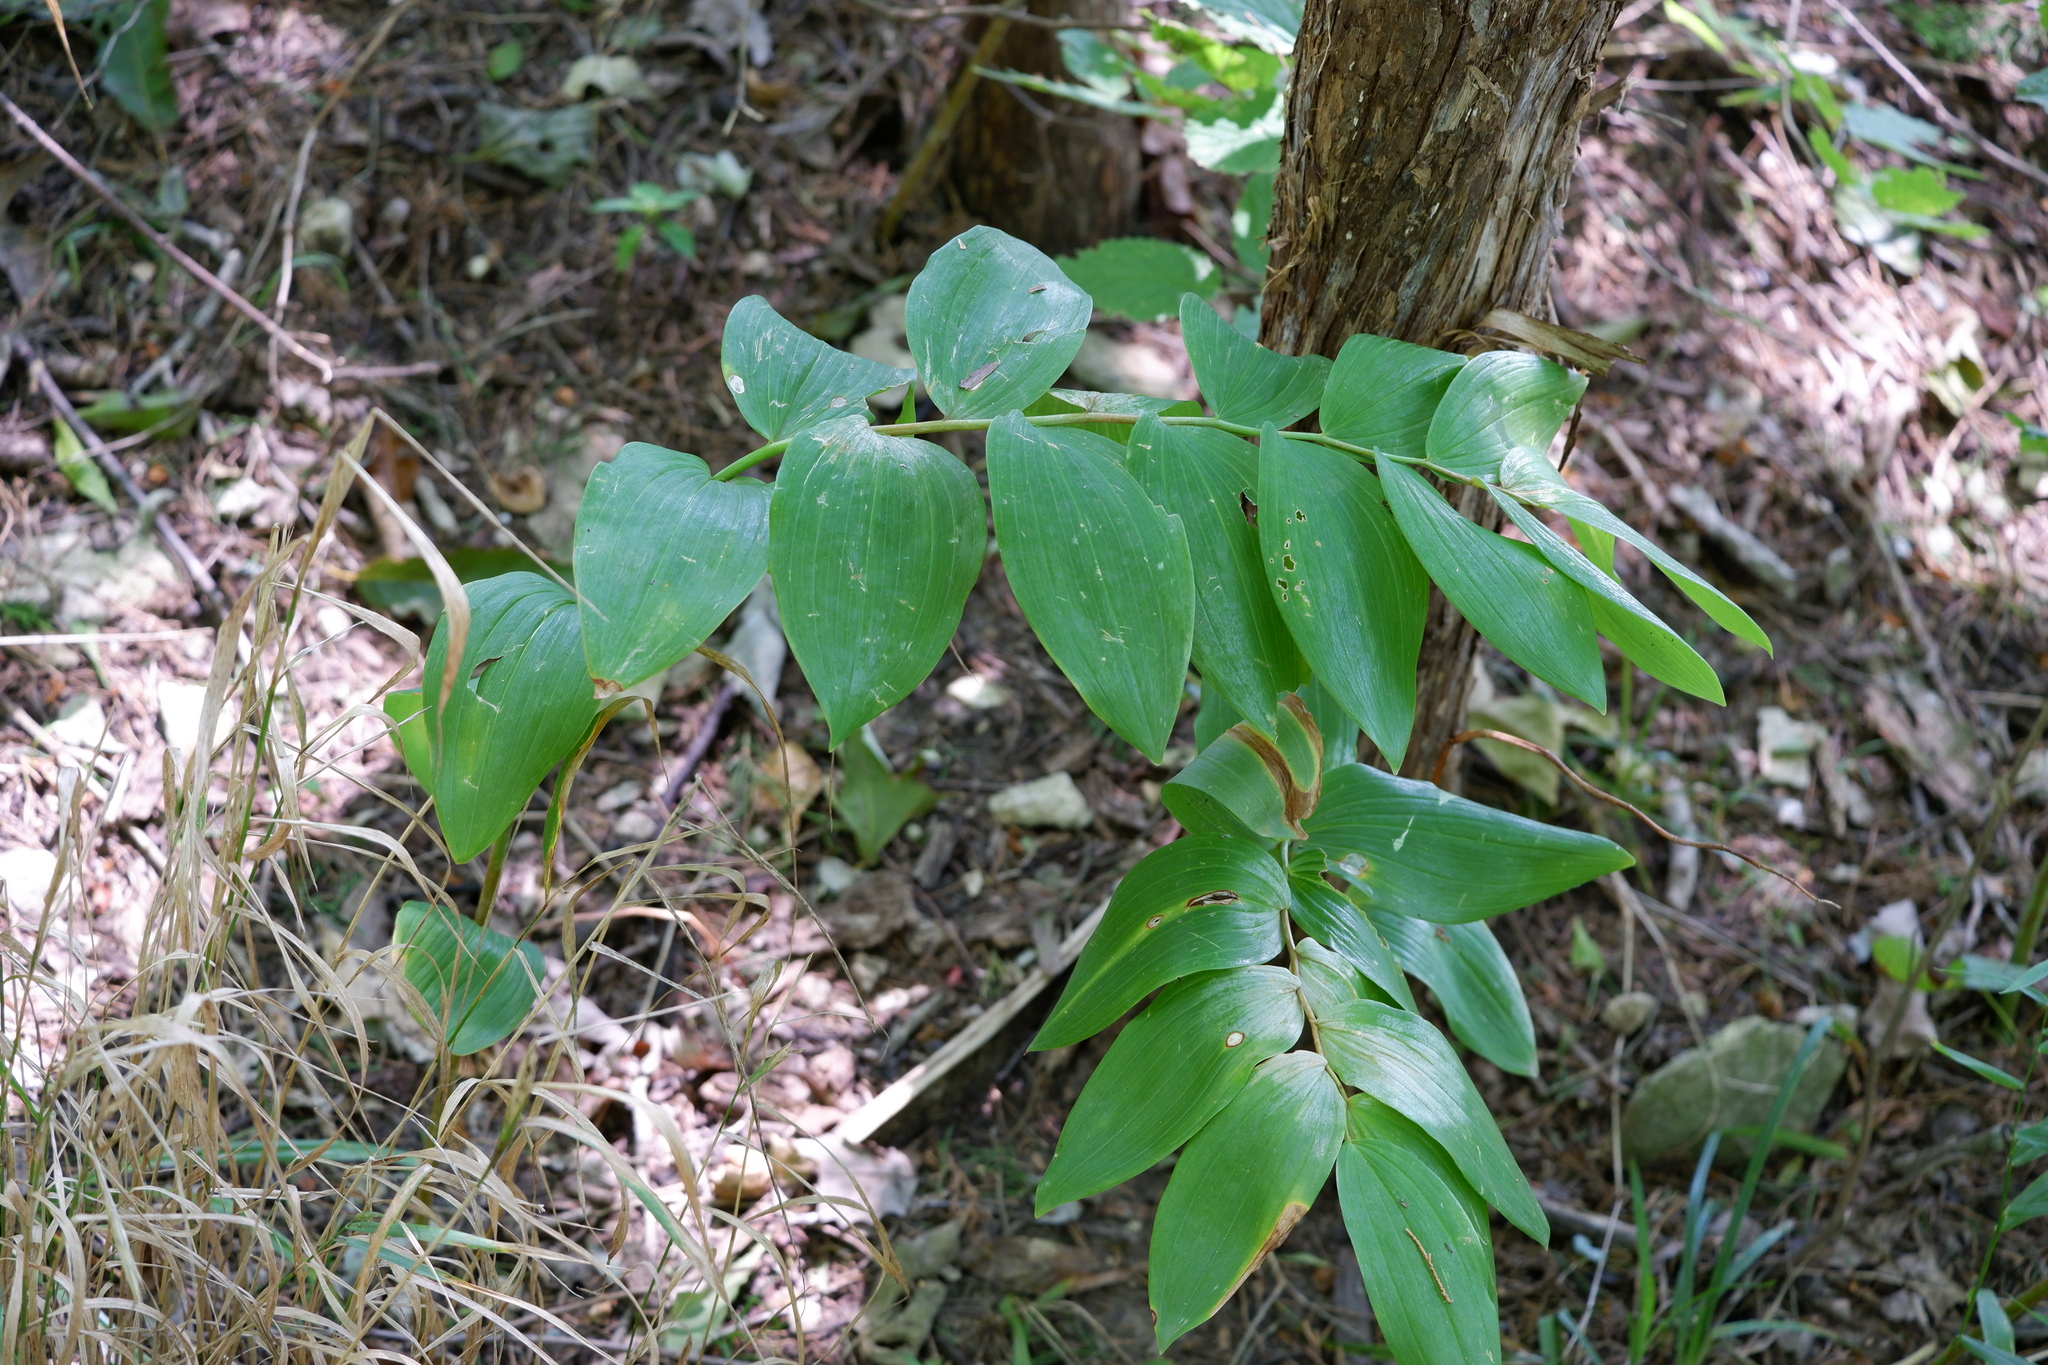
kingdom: Plantae
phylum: Tracheophyta
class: Liliopsida
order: Asparagales
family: Asparagaceae
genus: Polygonatum
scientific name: Polygonatum biflorum
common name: American solomon's-seal
